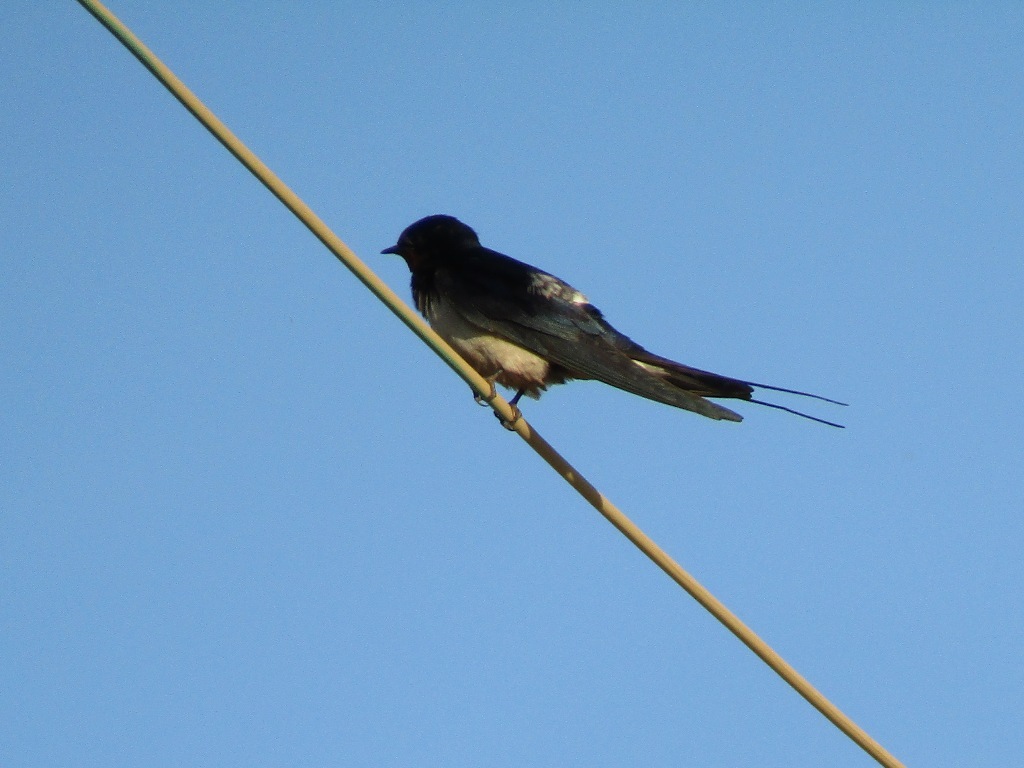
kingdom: Animalia
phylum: Chordata
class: Aves
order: Passeriformes
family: Hirundinidae
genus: Hirundo
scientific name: Hirundo rustica
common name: Barn swallow
